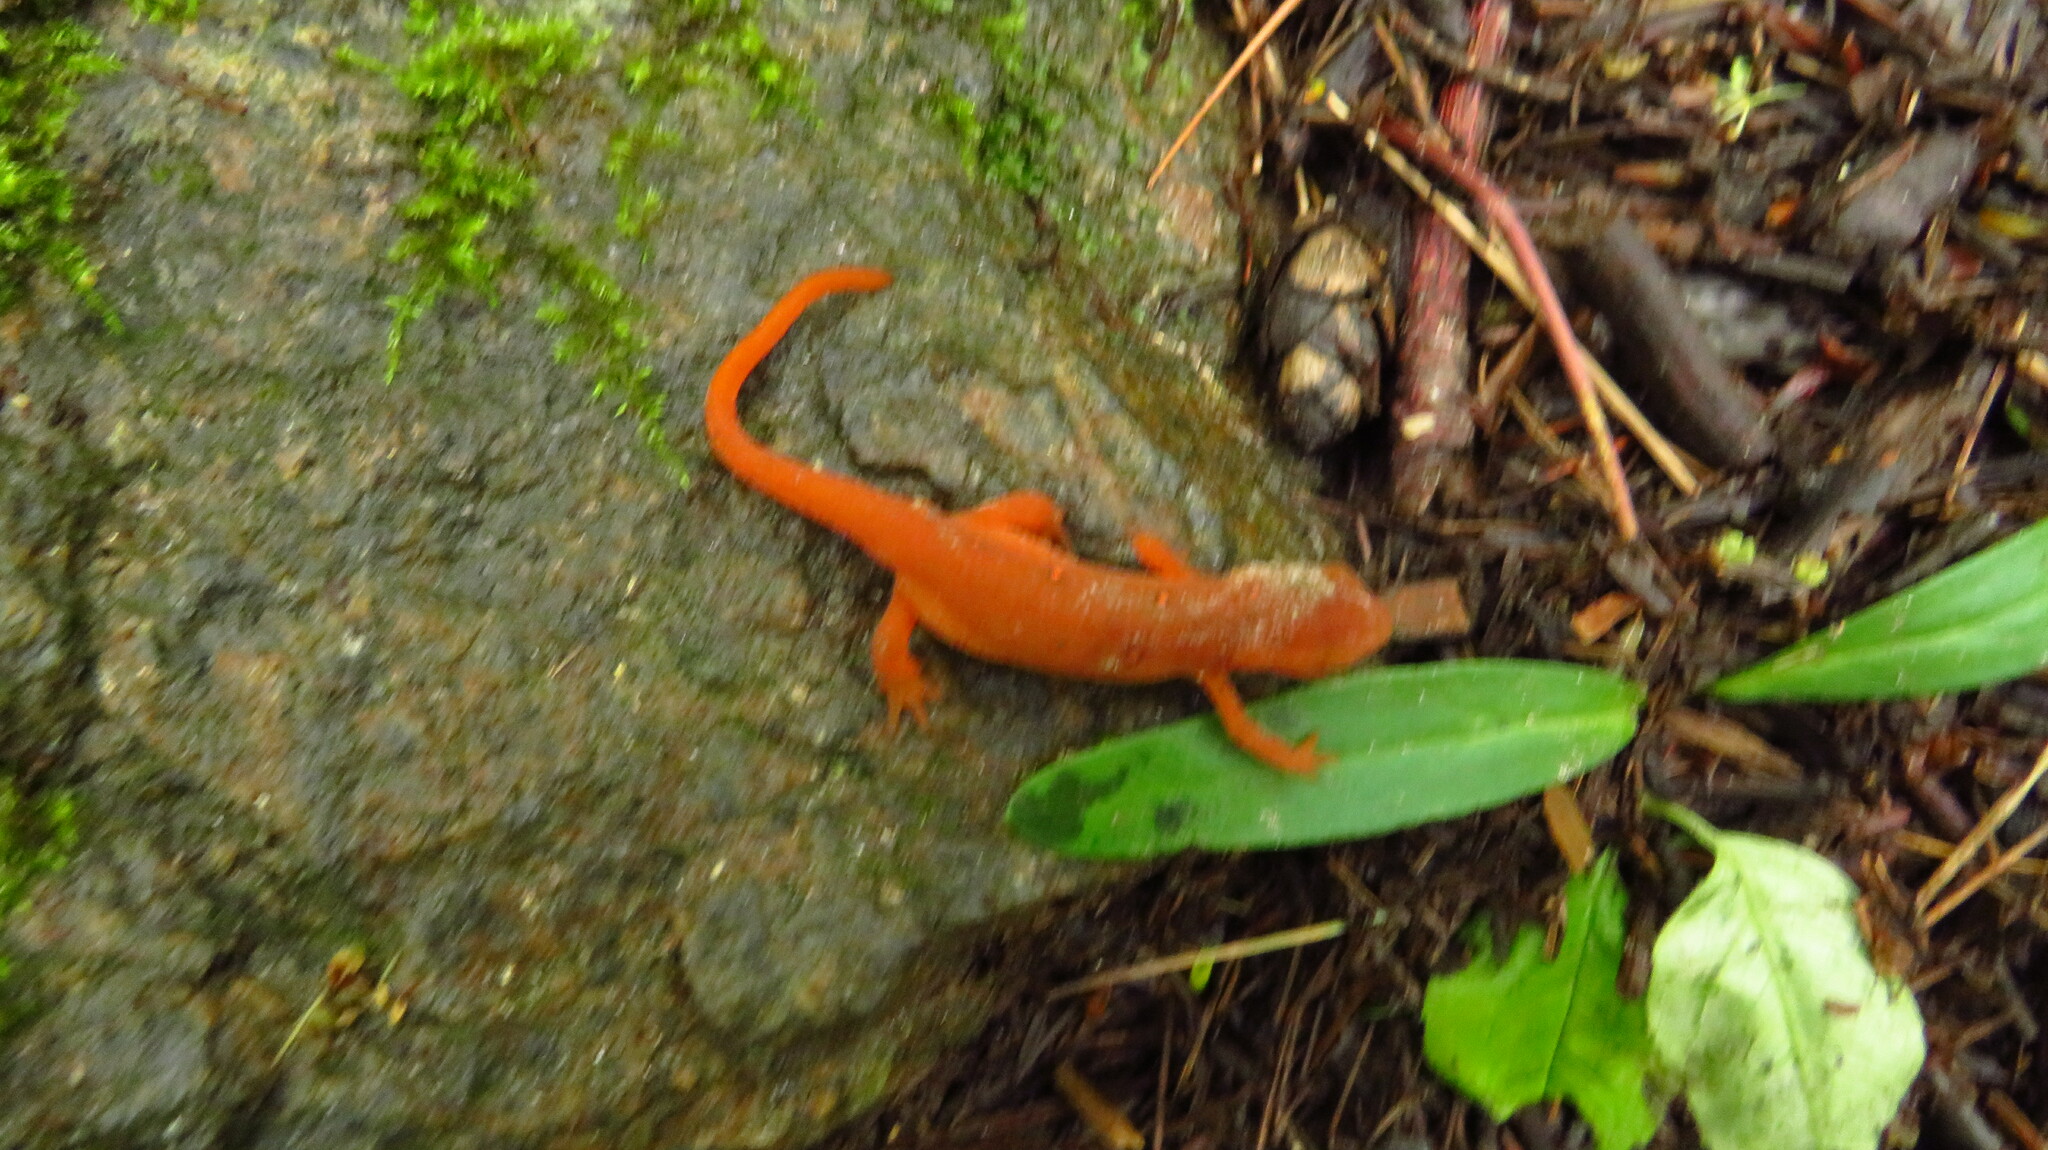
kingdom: Animalia
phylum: Chordata
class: Amphibia
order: Caudata
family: Salamandridae
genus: Notophthalmus
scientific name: Notophthalmus viridescens
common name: Eastern newt
